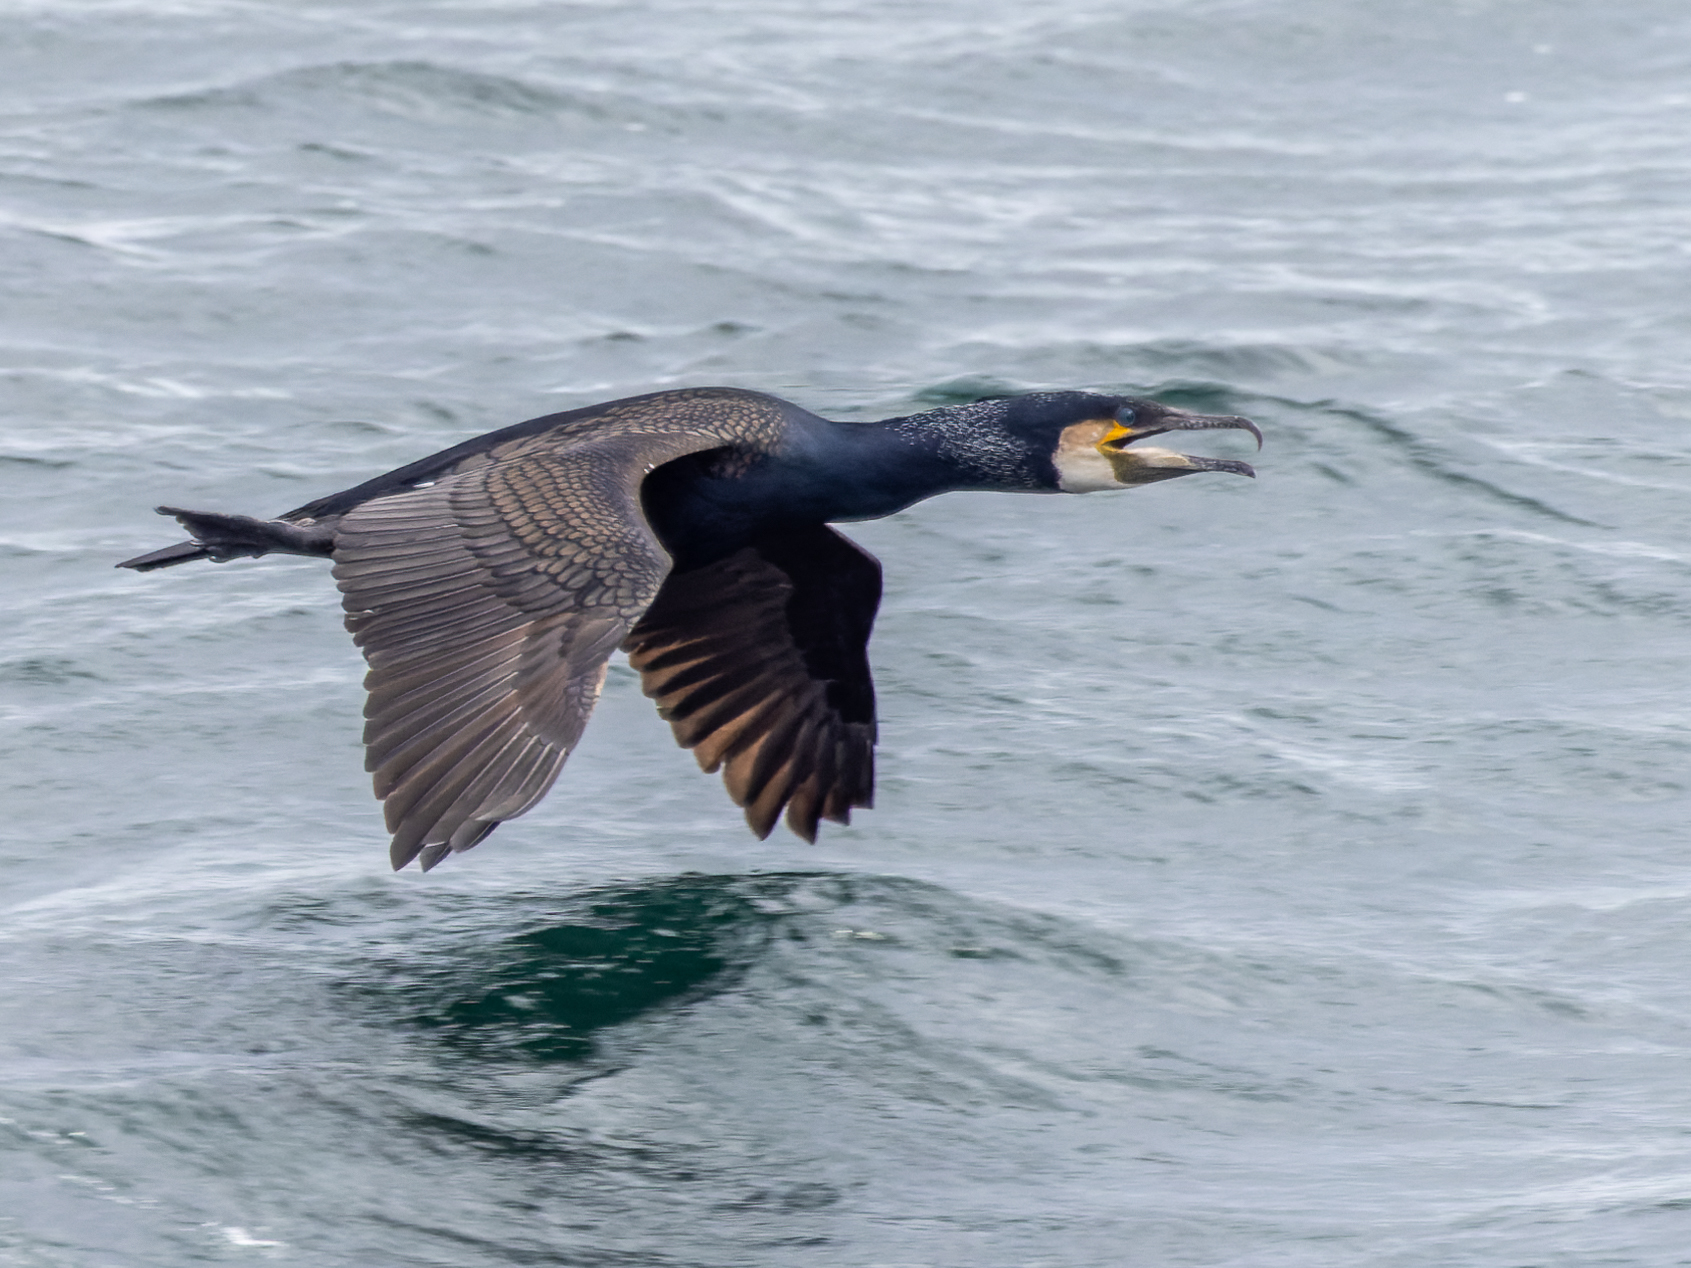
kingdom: Animalia
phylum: Chordata
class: Aves
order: Suliformes
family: Phalacrocoracidae
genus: Phalacrocorax
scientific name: Phalacrocorax carbo
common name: Great cormorant
